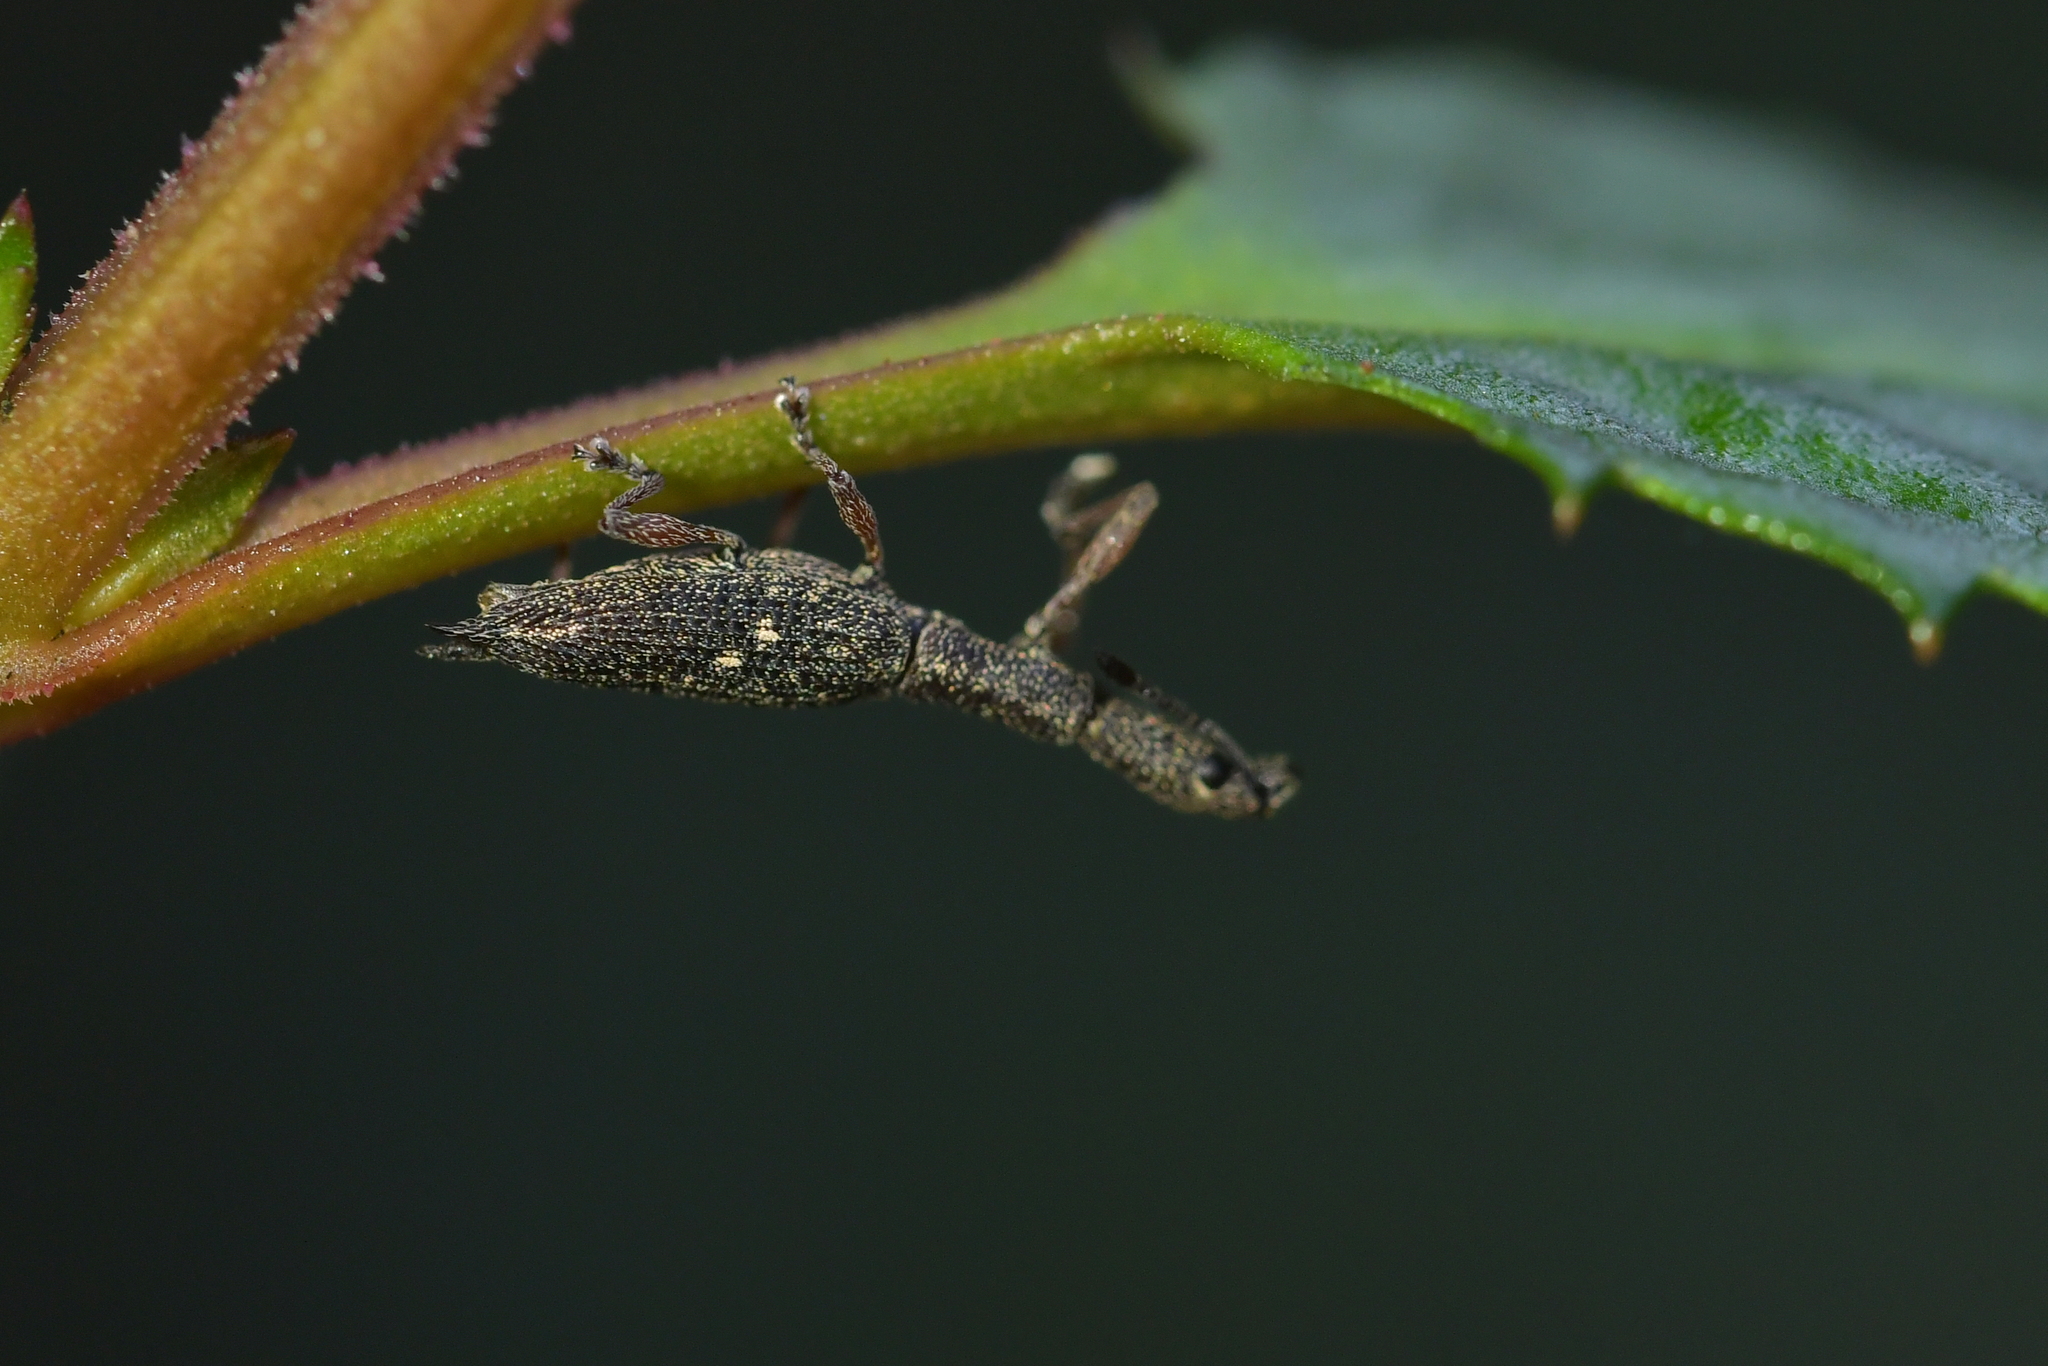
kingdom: Animalia
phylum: Arthropoda
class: Insecta
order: Coleoptera
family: Curculionidae
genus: Rhadinosomus
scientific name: Rhadinosomus acuminatus
